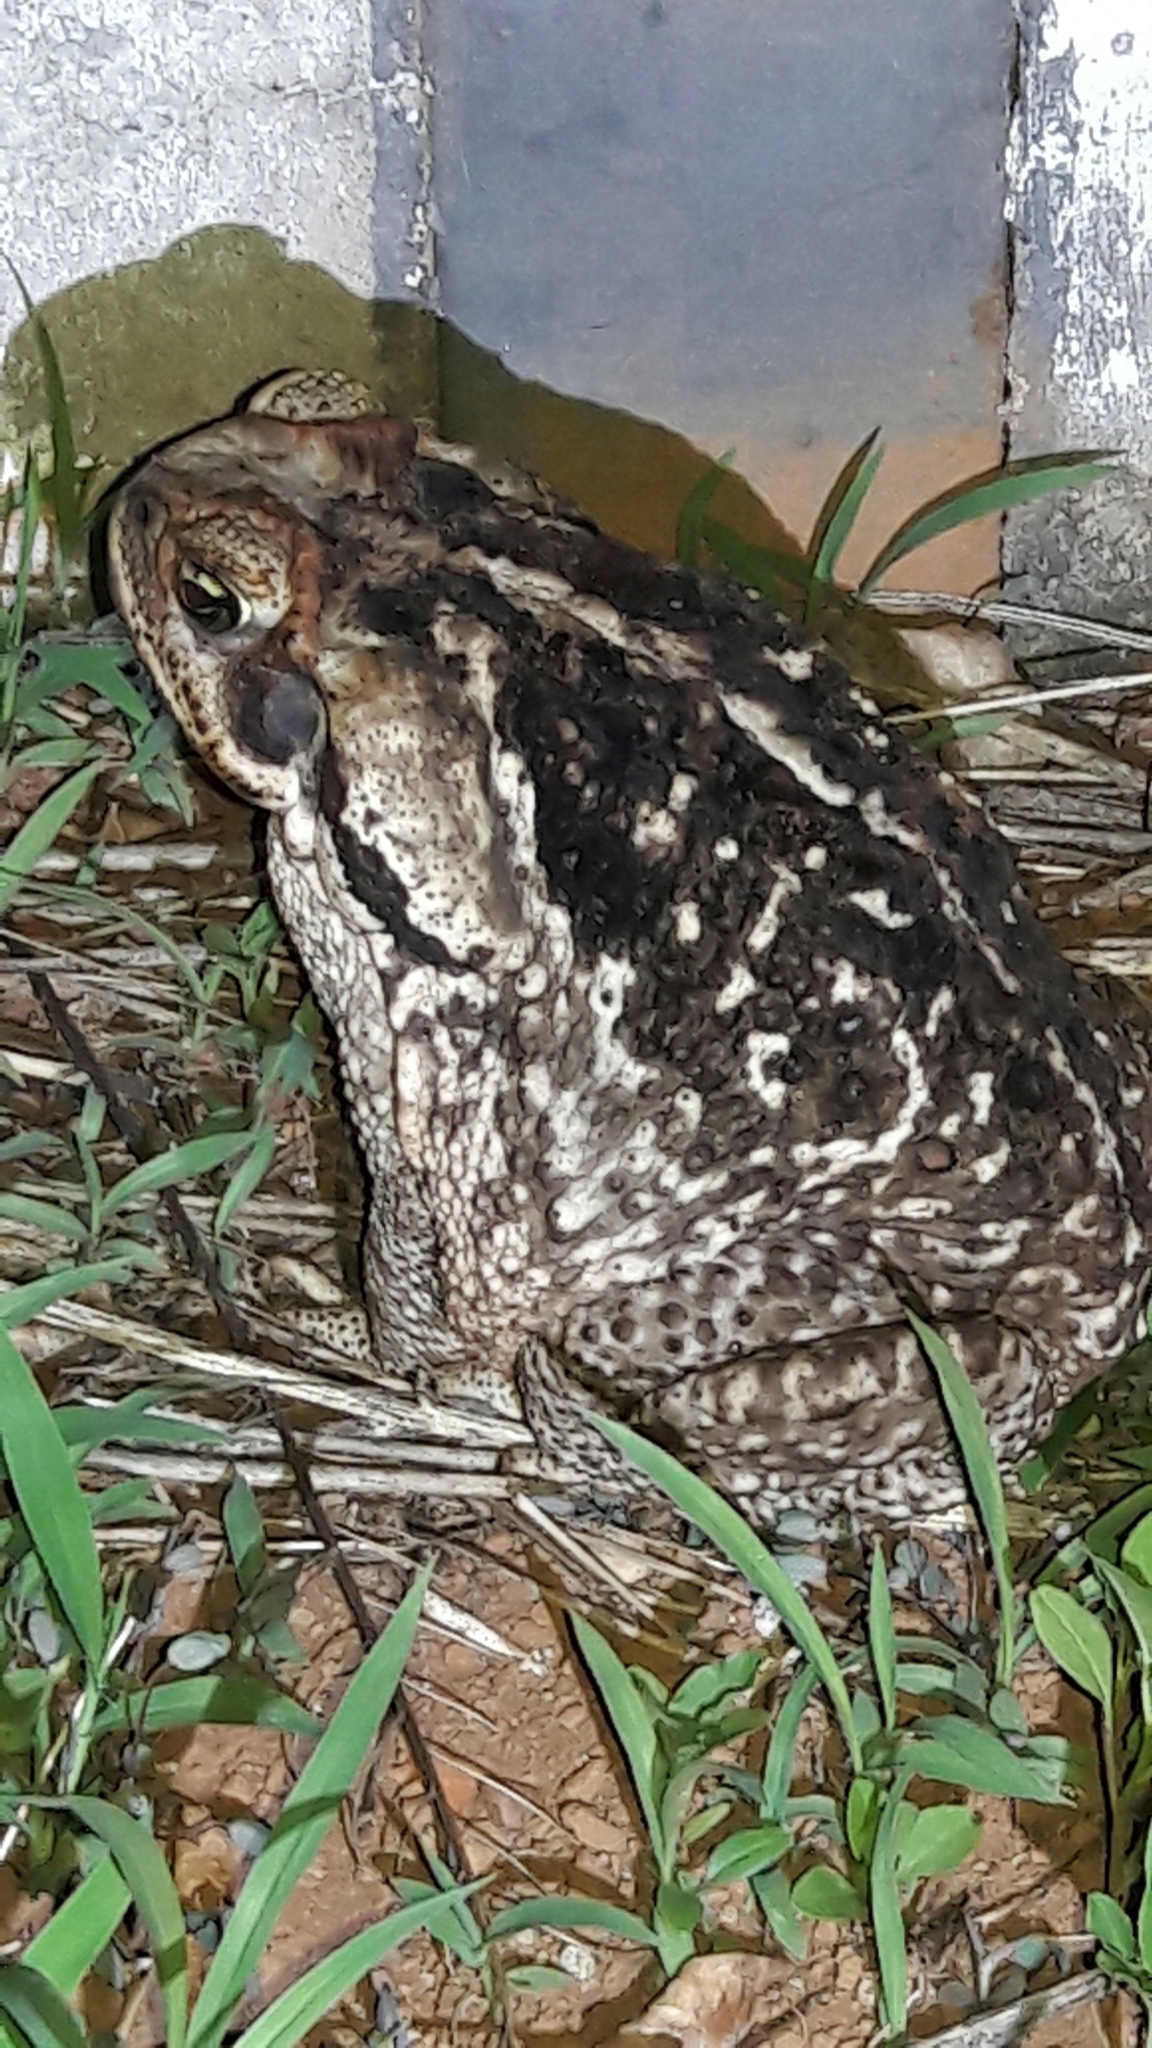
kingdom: Animalia
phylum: Chordata
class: Amphibia
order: Anura
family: Bufonidae
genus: Rhinella
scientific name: Rhinella diptycha
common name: Cope's toad
